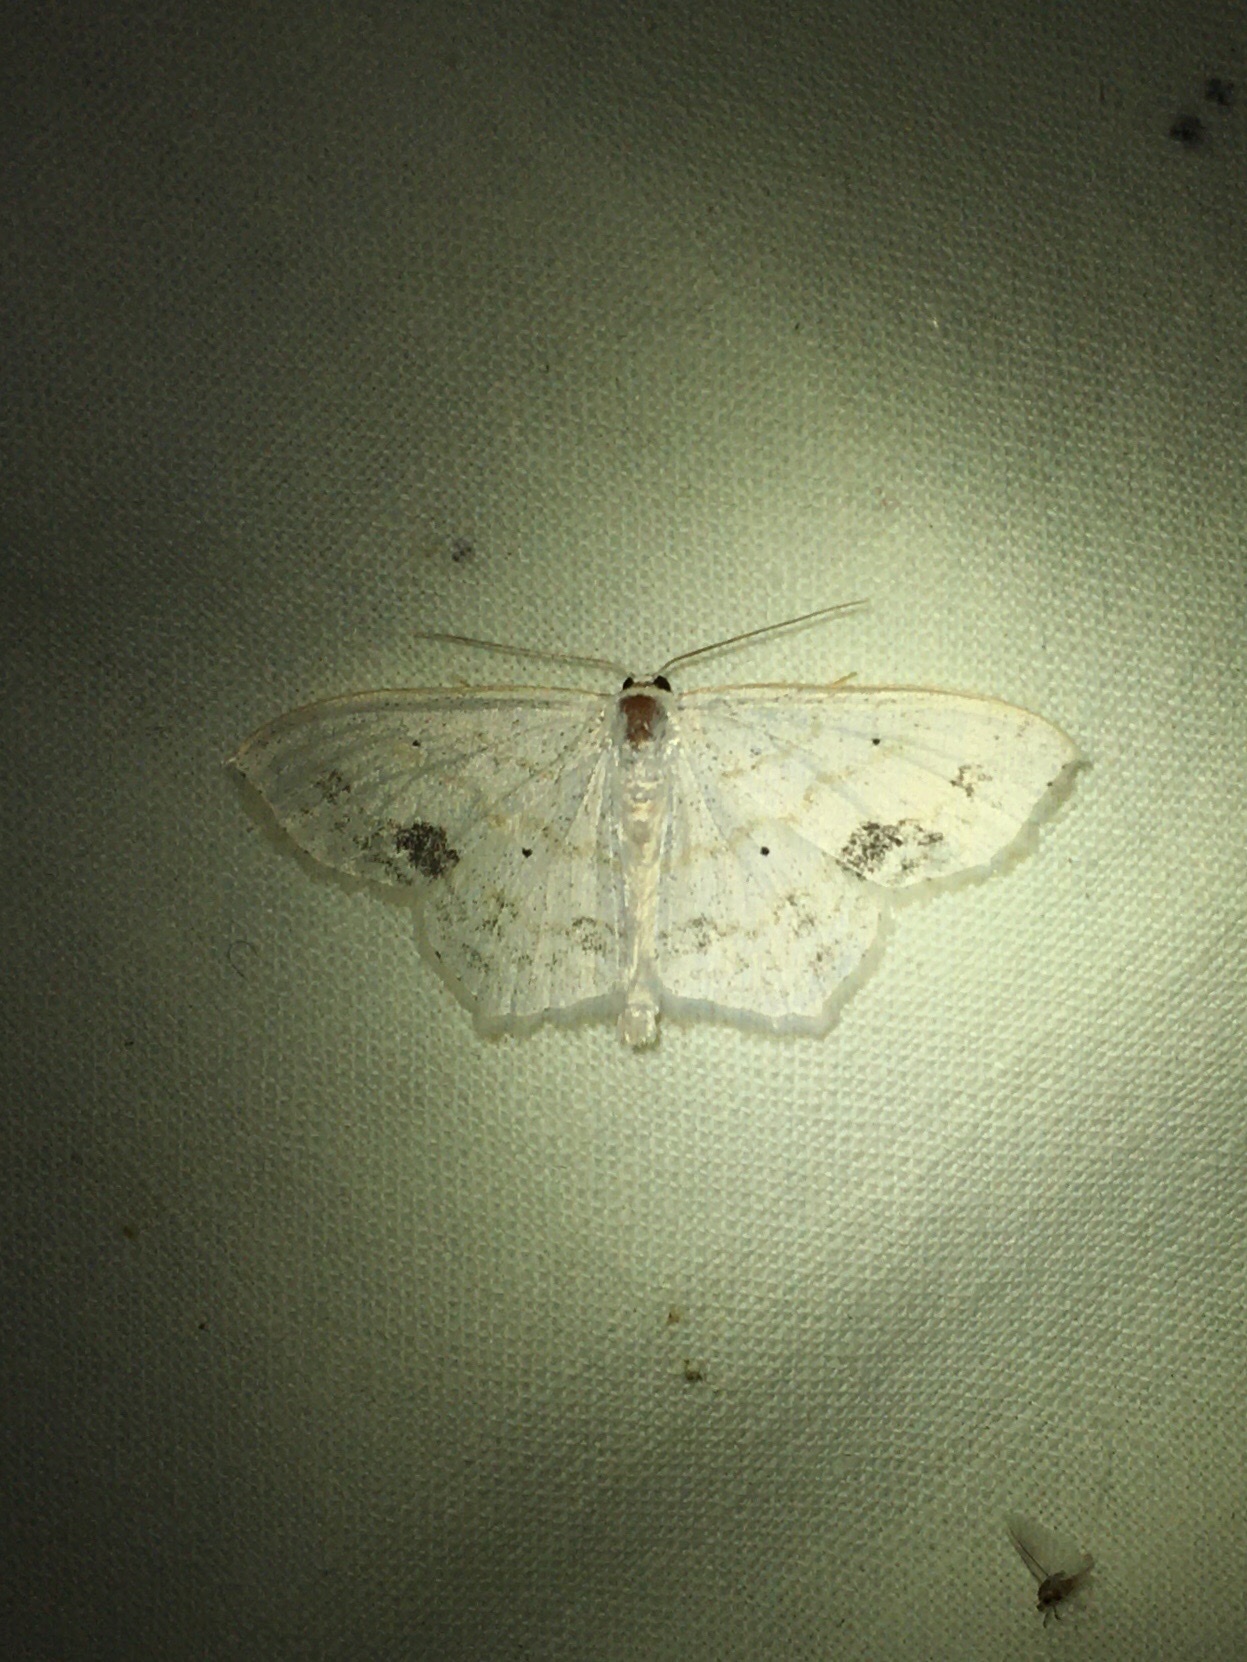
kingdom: Animalia
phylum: Arthropoda
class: Insecta
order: Lepidoptera
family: Geometridae
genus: Scopula
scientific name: Scopula limboundata
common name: Large lace border
